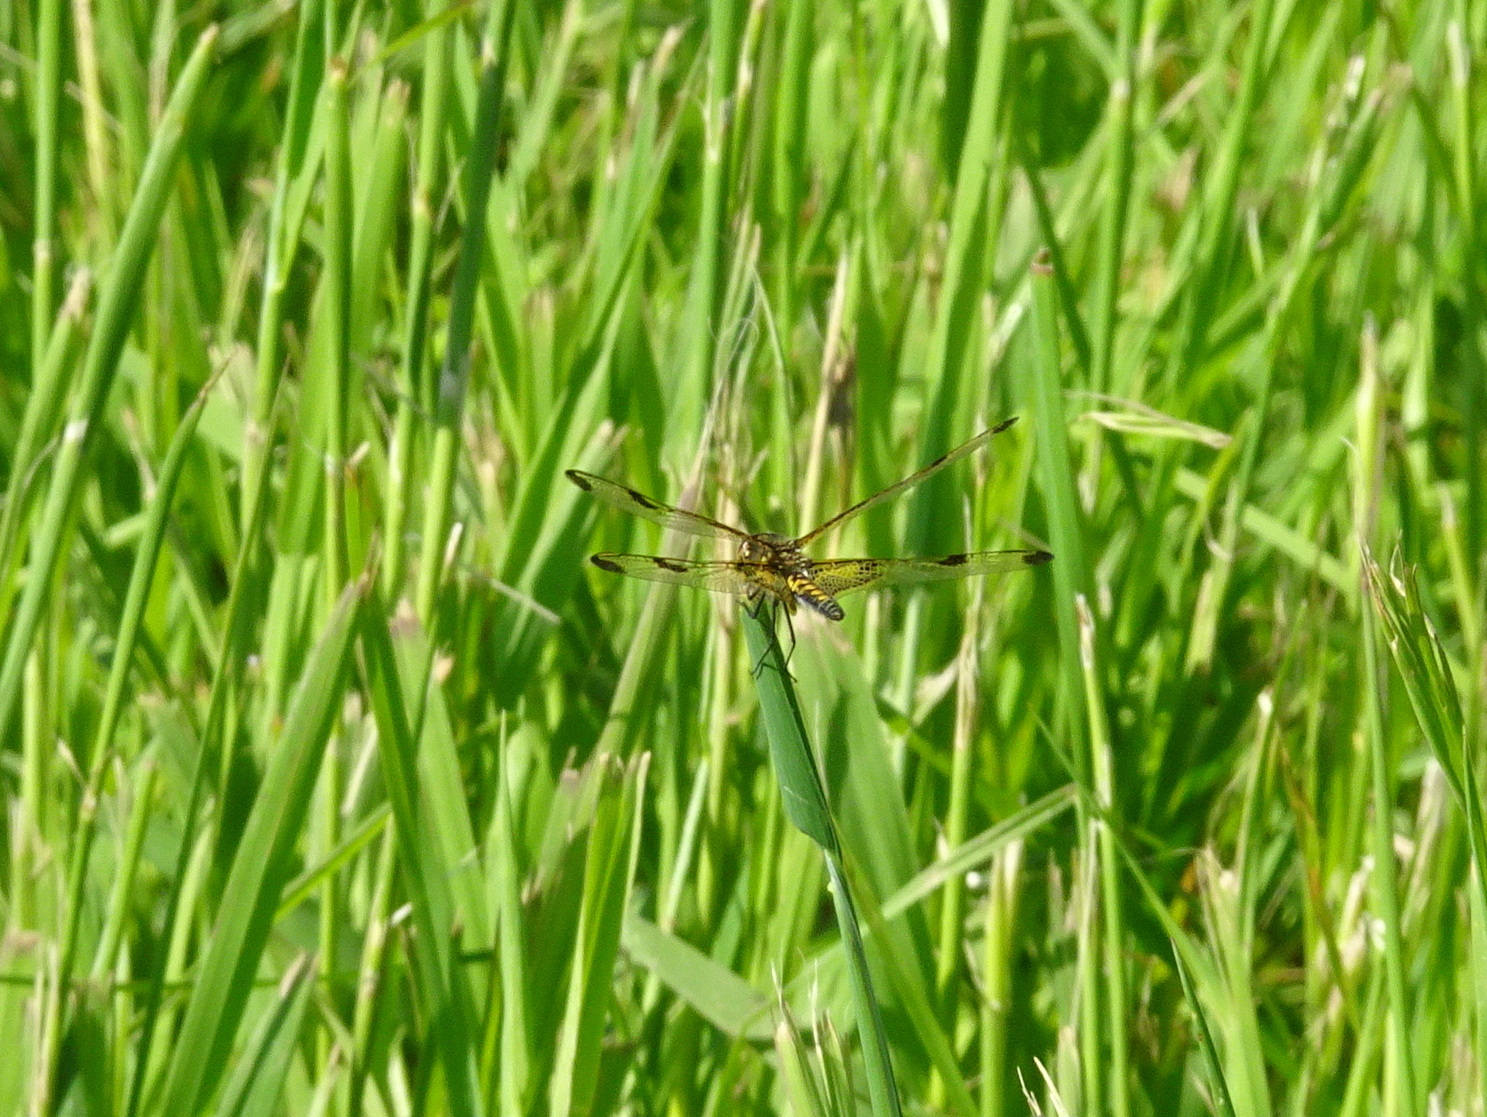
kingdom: Animalia
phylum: Arthropoda
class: Insecta
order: Odonata
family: Libellulidae
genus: Celithemis
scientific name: Celithemis elisa
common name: Calico pennant
